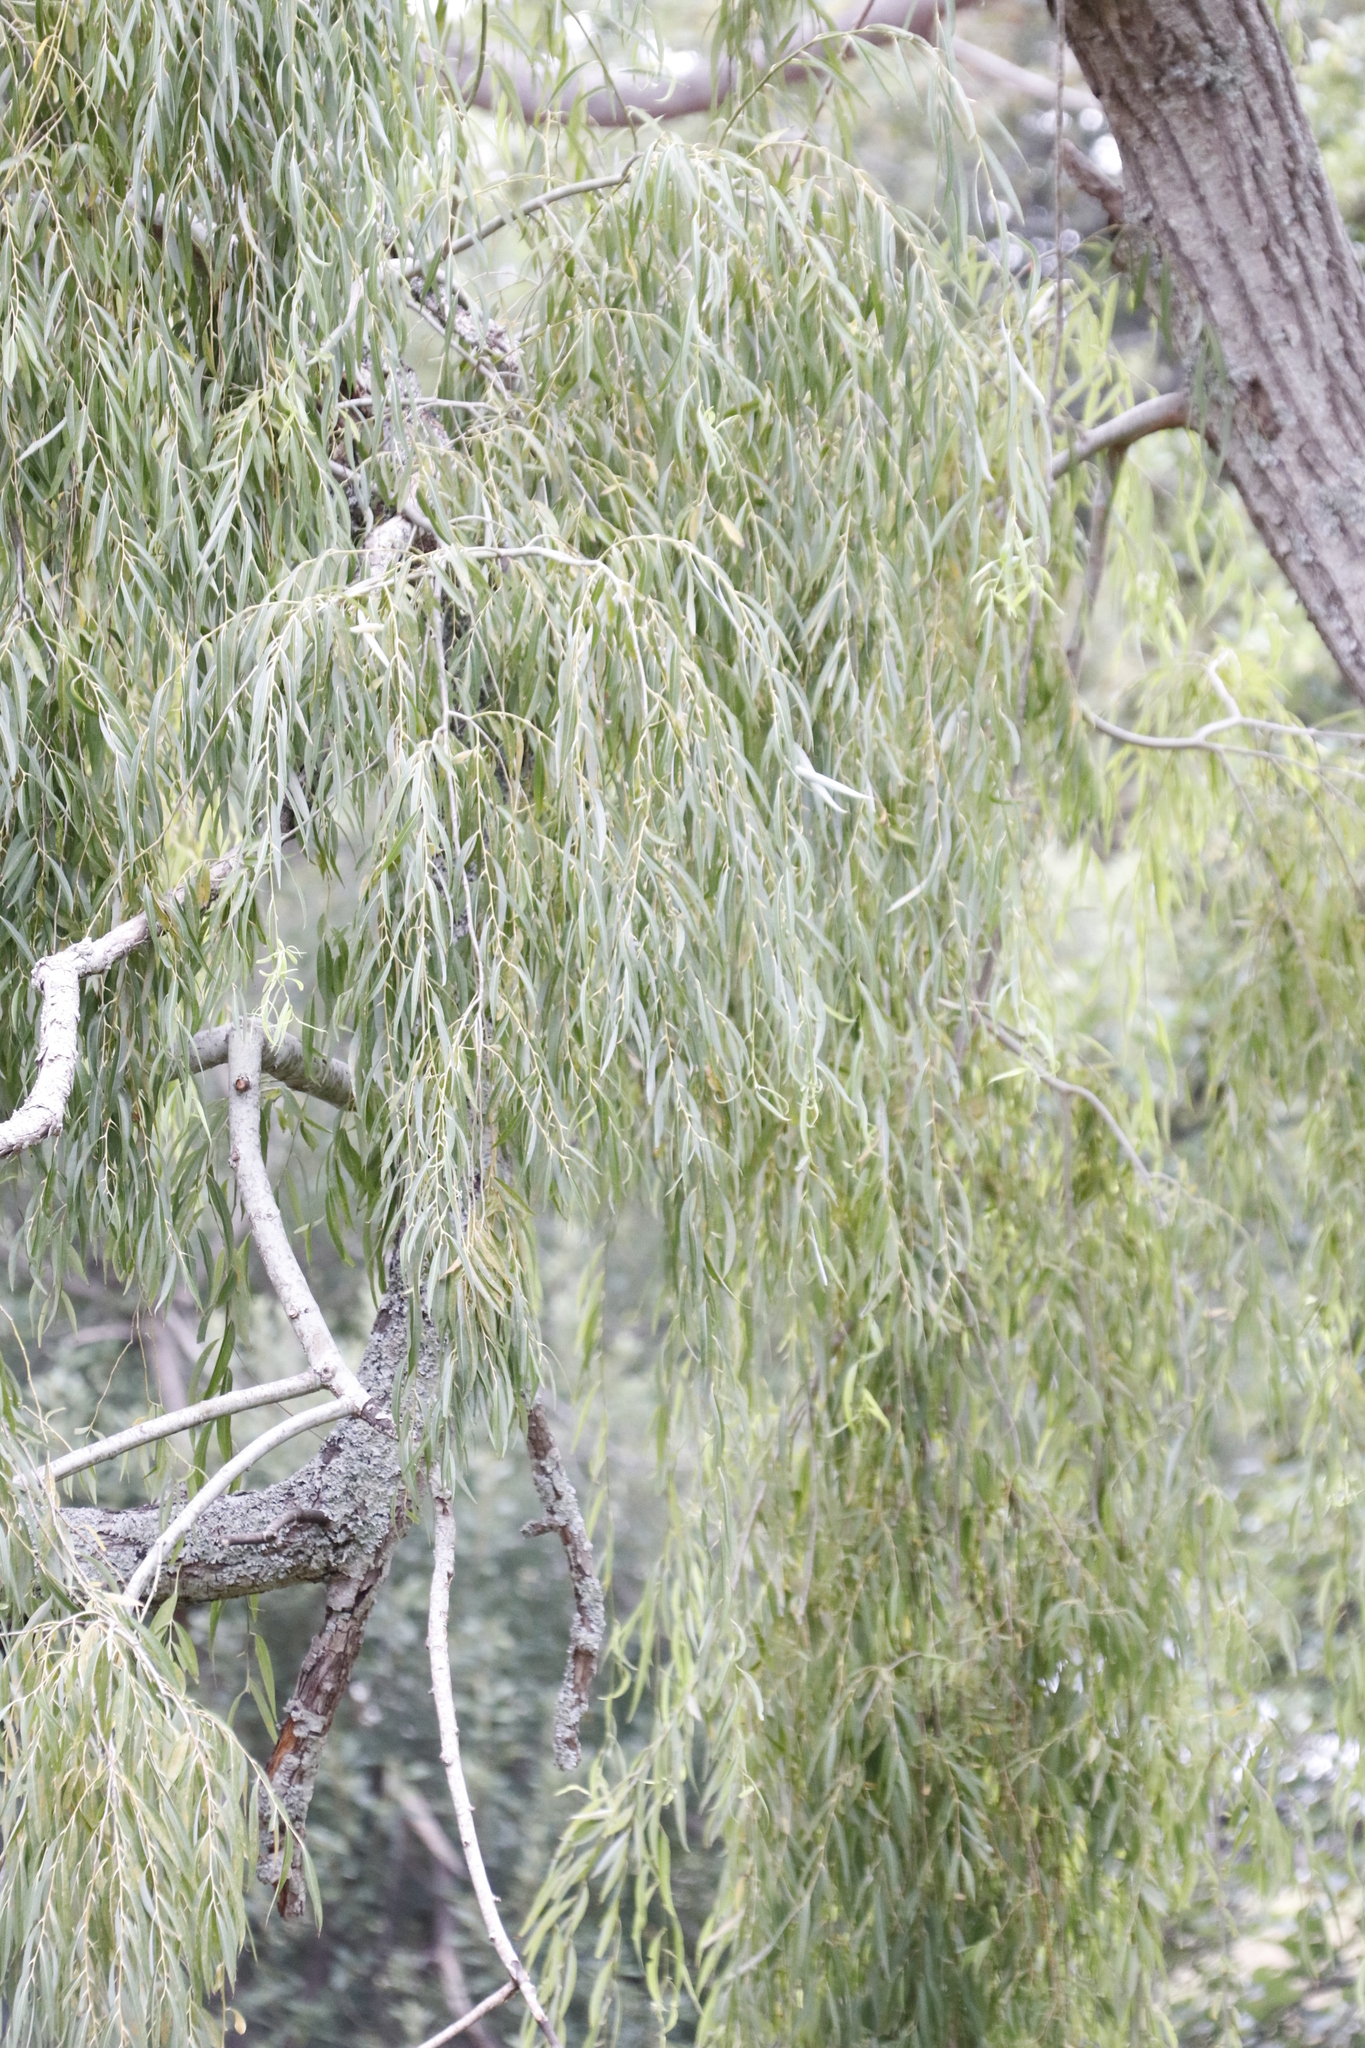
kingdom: Plantae
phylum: Tracheophyta
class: Magnoliopsida
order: Malpighiales
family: Salicaceae
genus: Salix
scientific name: Salix babylonica
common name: Weeping willow
